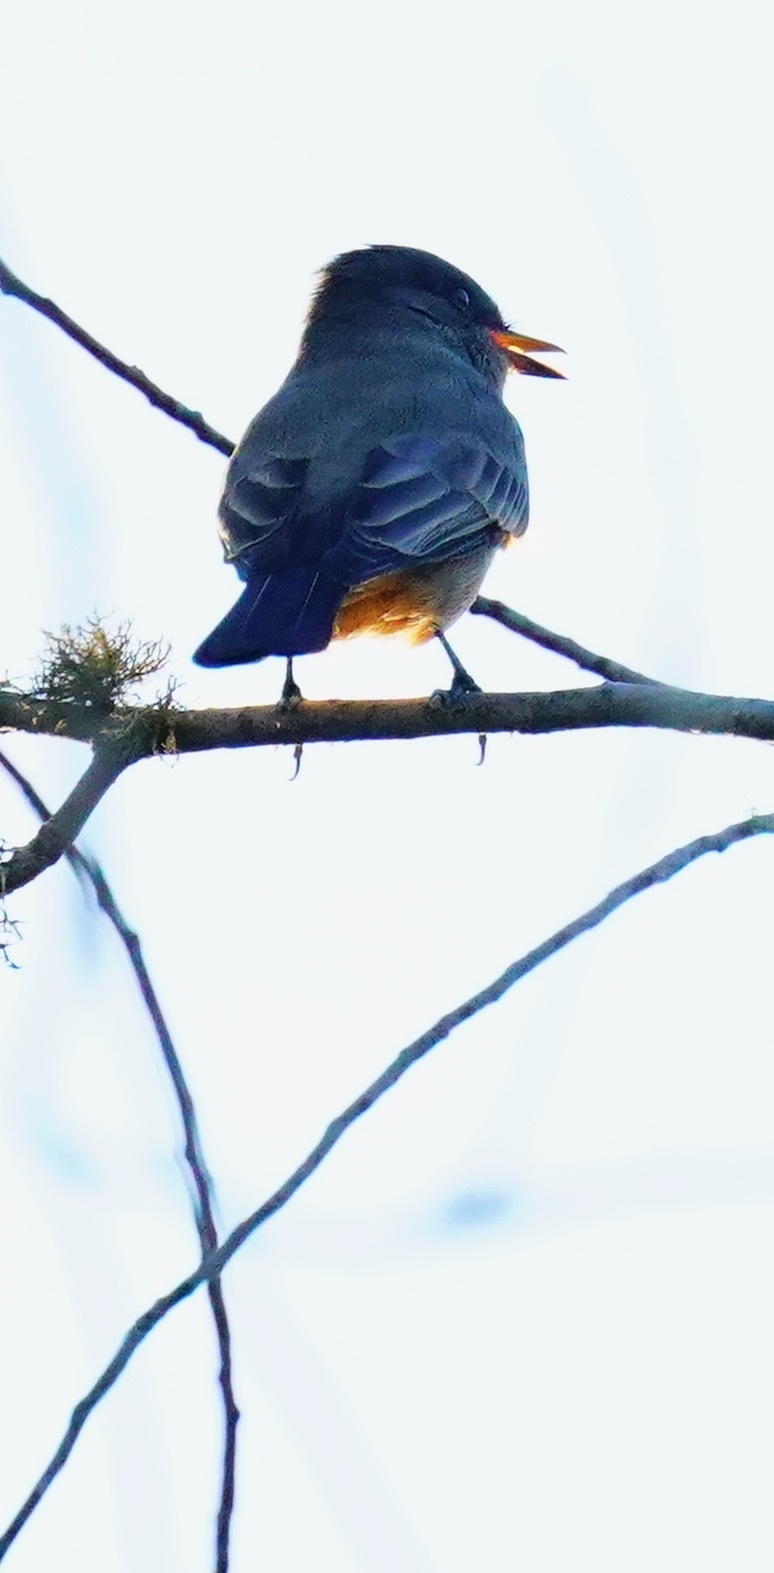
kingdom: Animalia
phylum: Chordata
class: Aves
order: Passeriformes
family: Tyrannidae
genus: Sayornis
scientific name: Sayornis saya
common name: Say's phoebe
